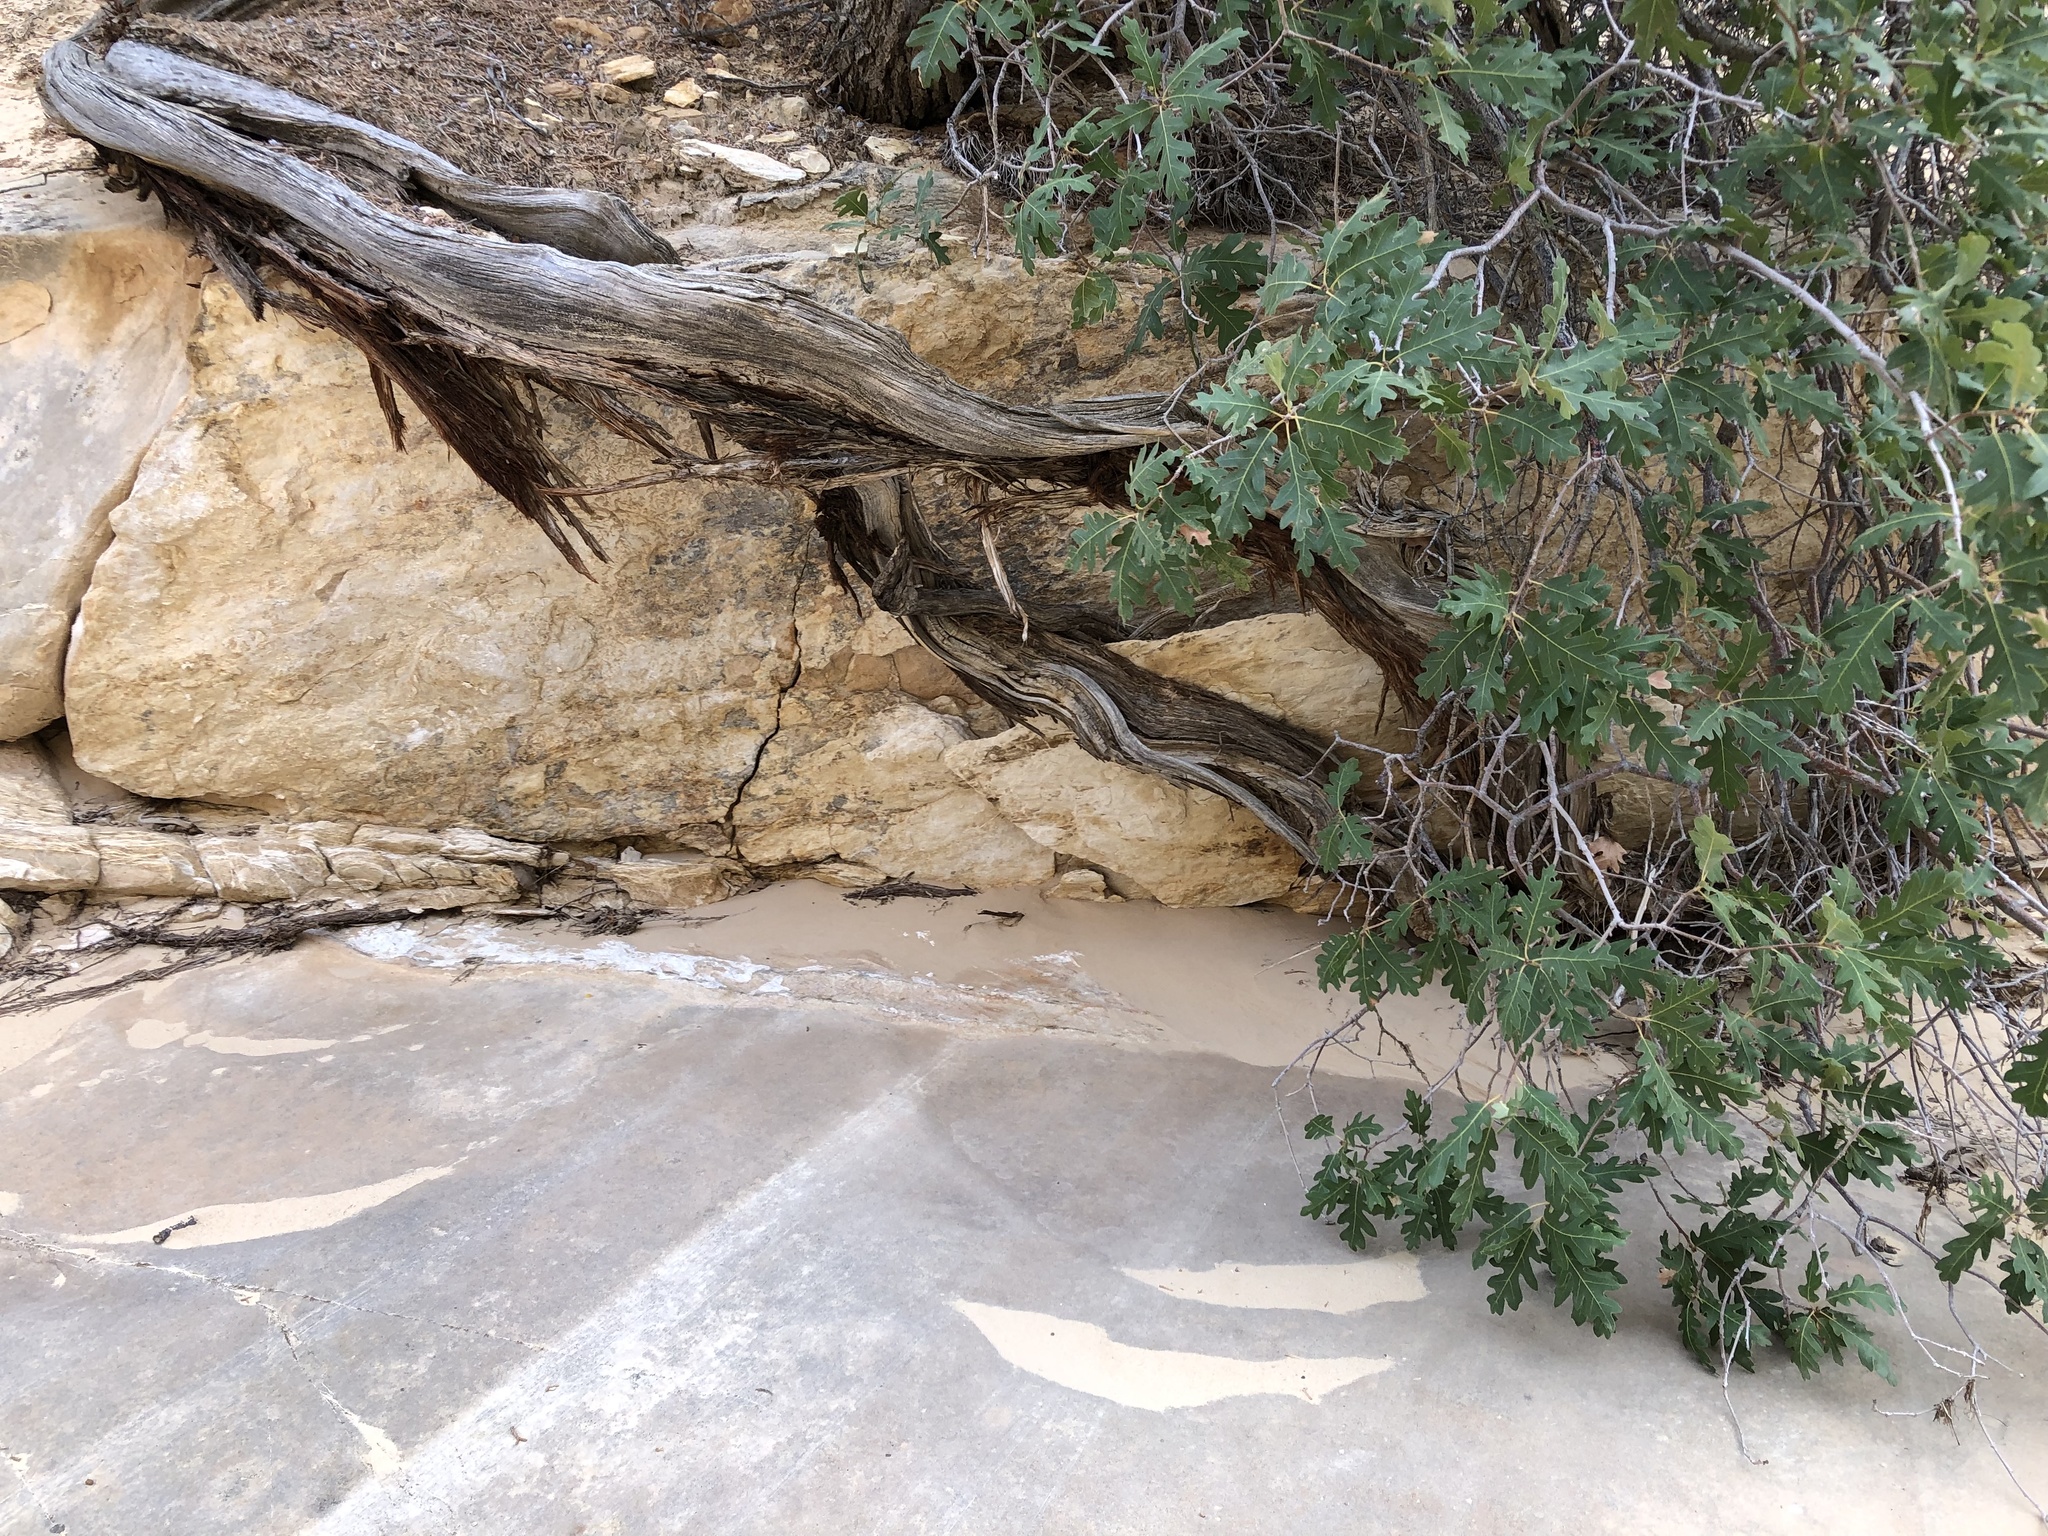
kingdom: Plantae
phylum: Tracheophyta
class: Magnoliopsida
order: Fagales
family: Fagaceae
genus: Quercus
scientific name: Quercus gambelii
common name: Gambel oak
